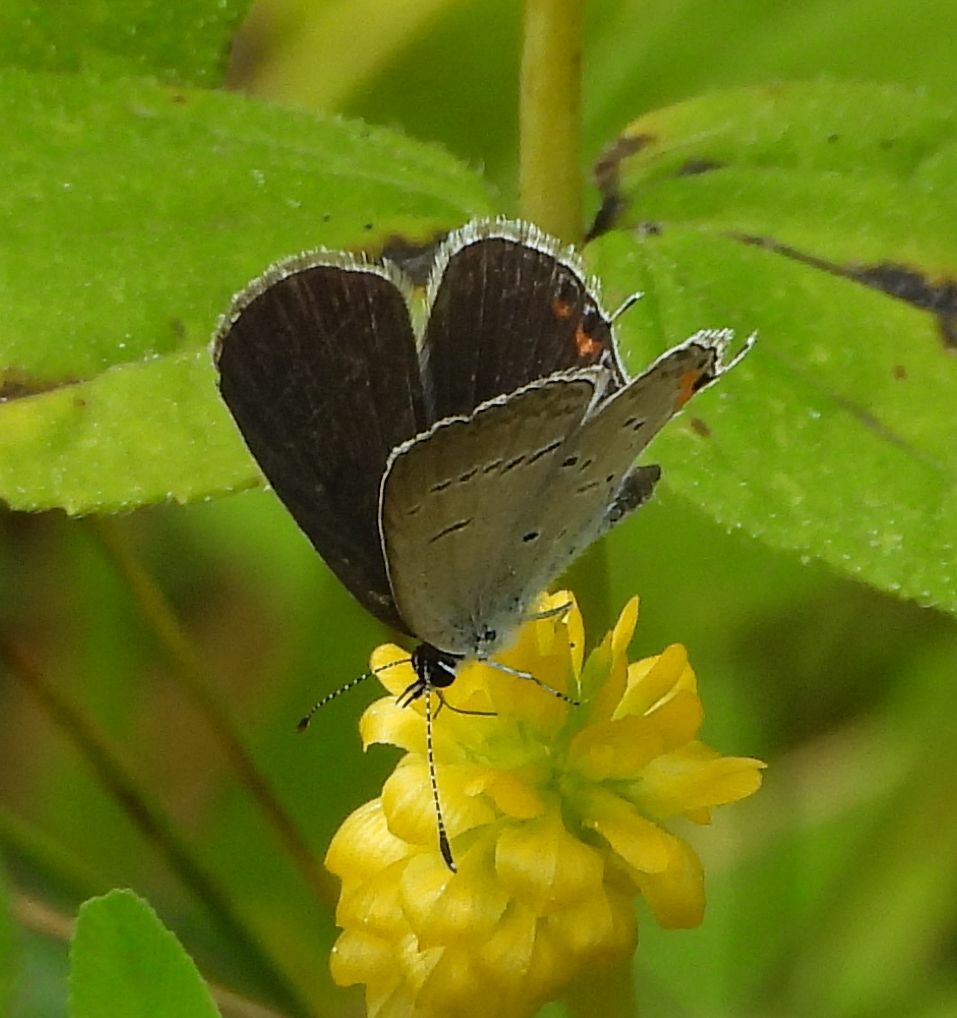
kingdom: Animalia
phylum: Arthropoda
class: Insecta
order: Lepidoptera
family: Lycaenidae
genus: Elkalyce
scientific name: Elkalyce comyntas
